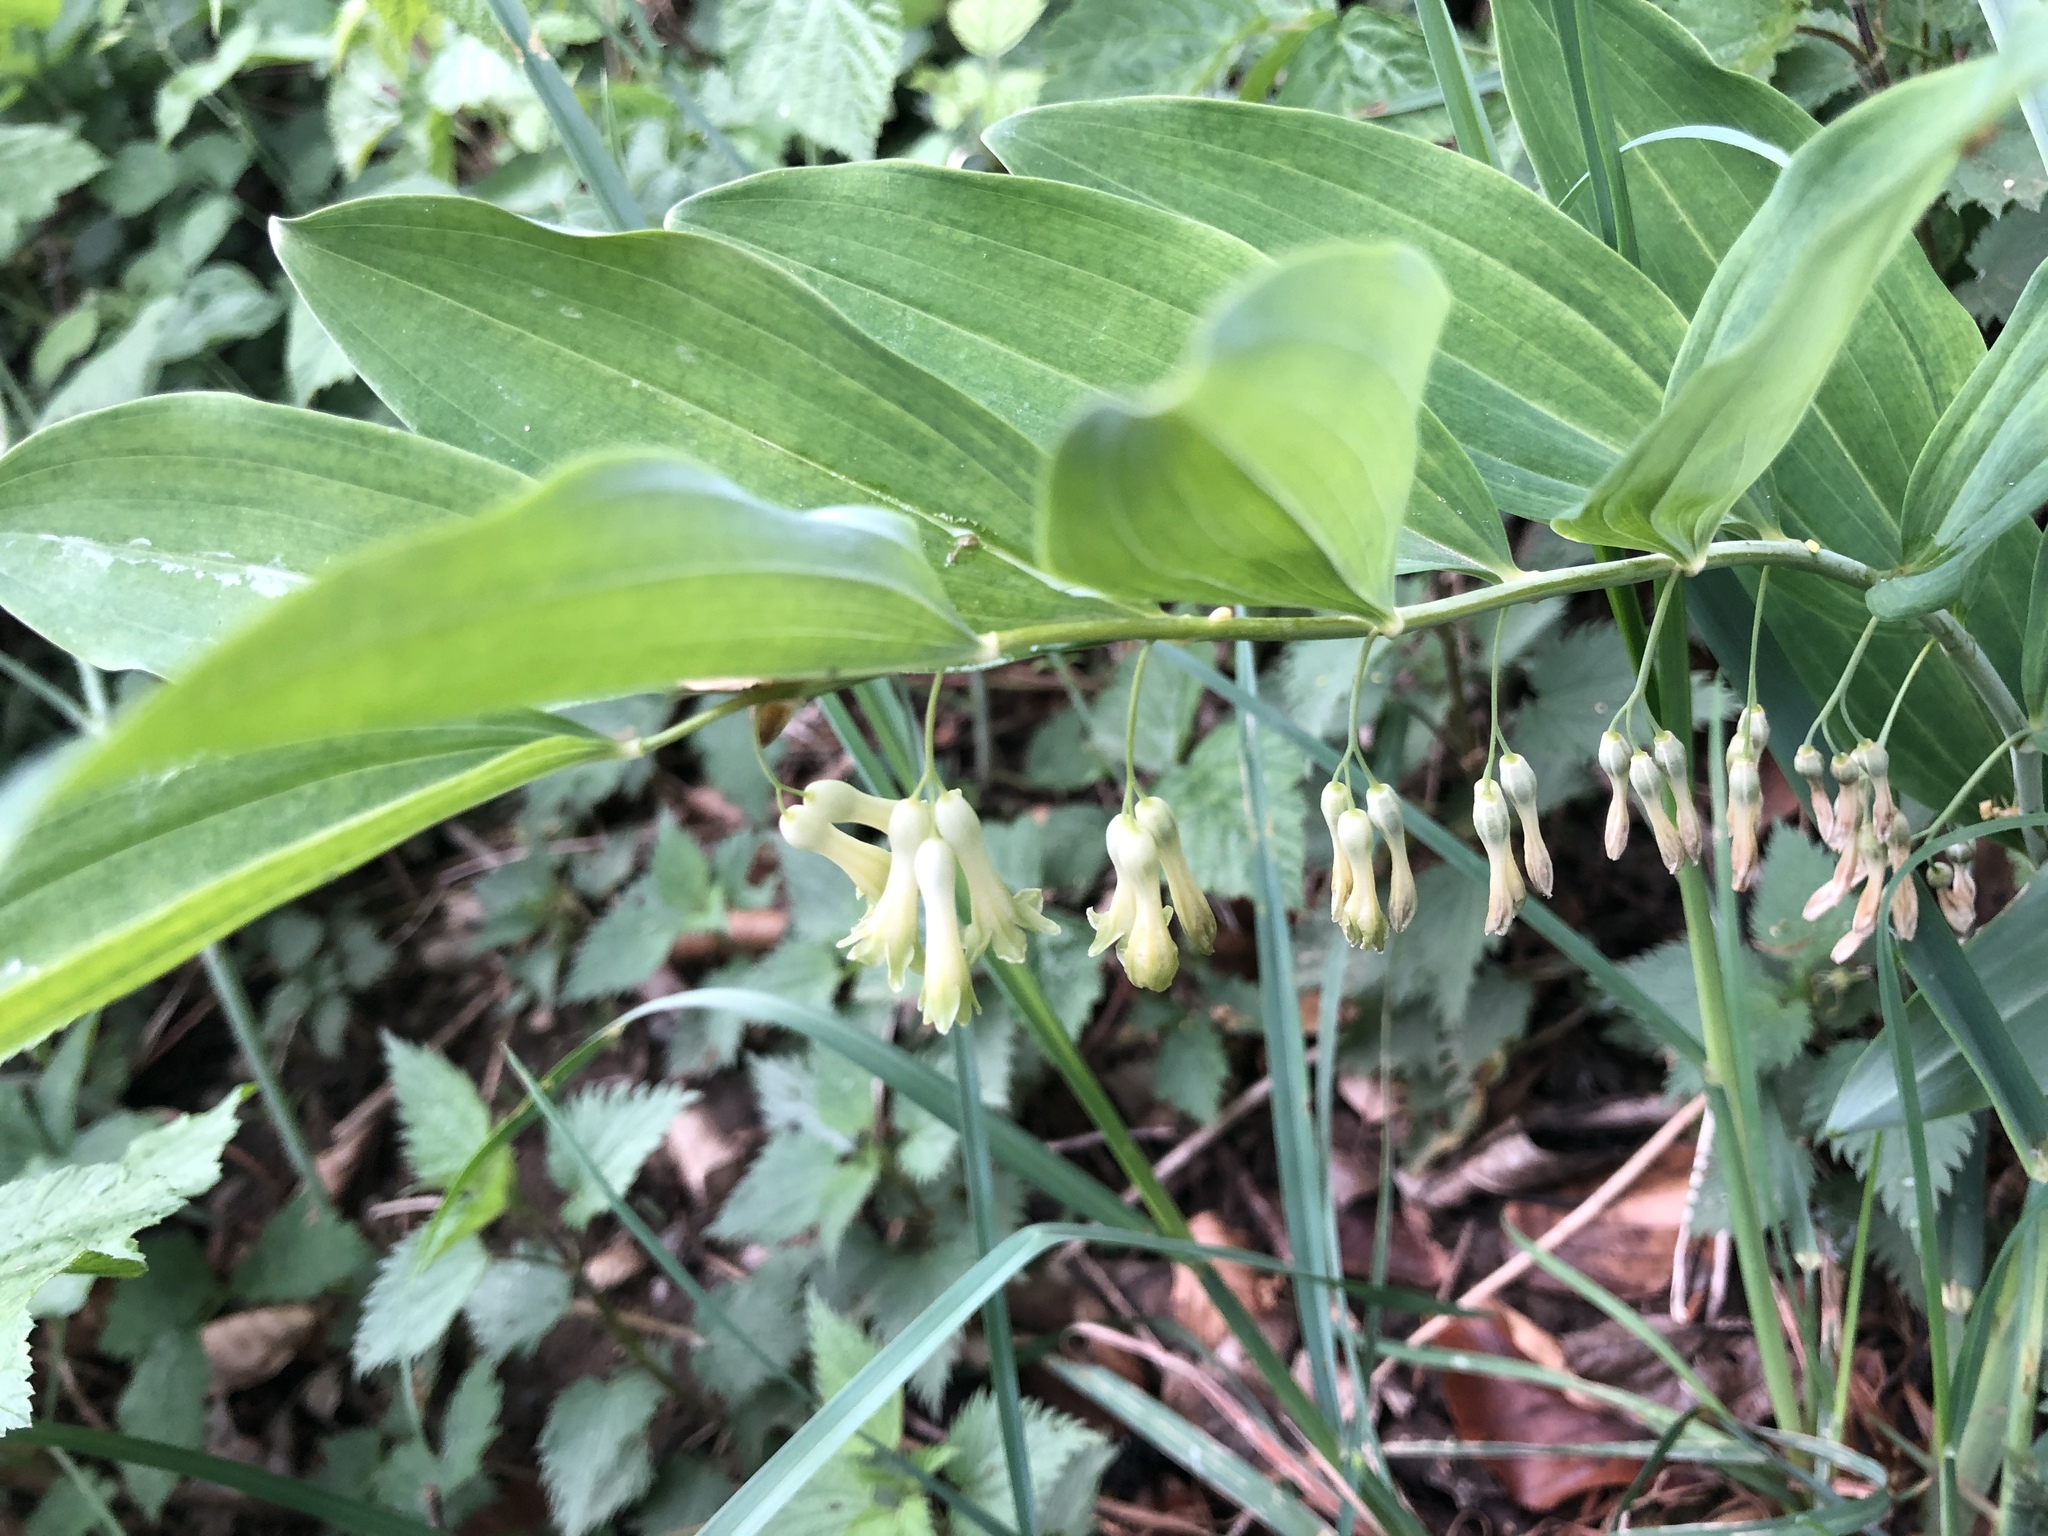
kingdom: Plantae
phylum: Tracheophyta
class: Liliopsida
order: Asparagales
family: Asparagaceae
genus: Polygonatum
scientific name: Polygonatum multiflorum
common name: Solomon's-seal
